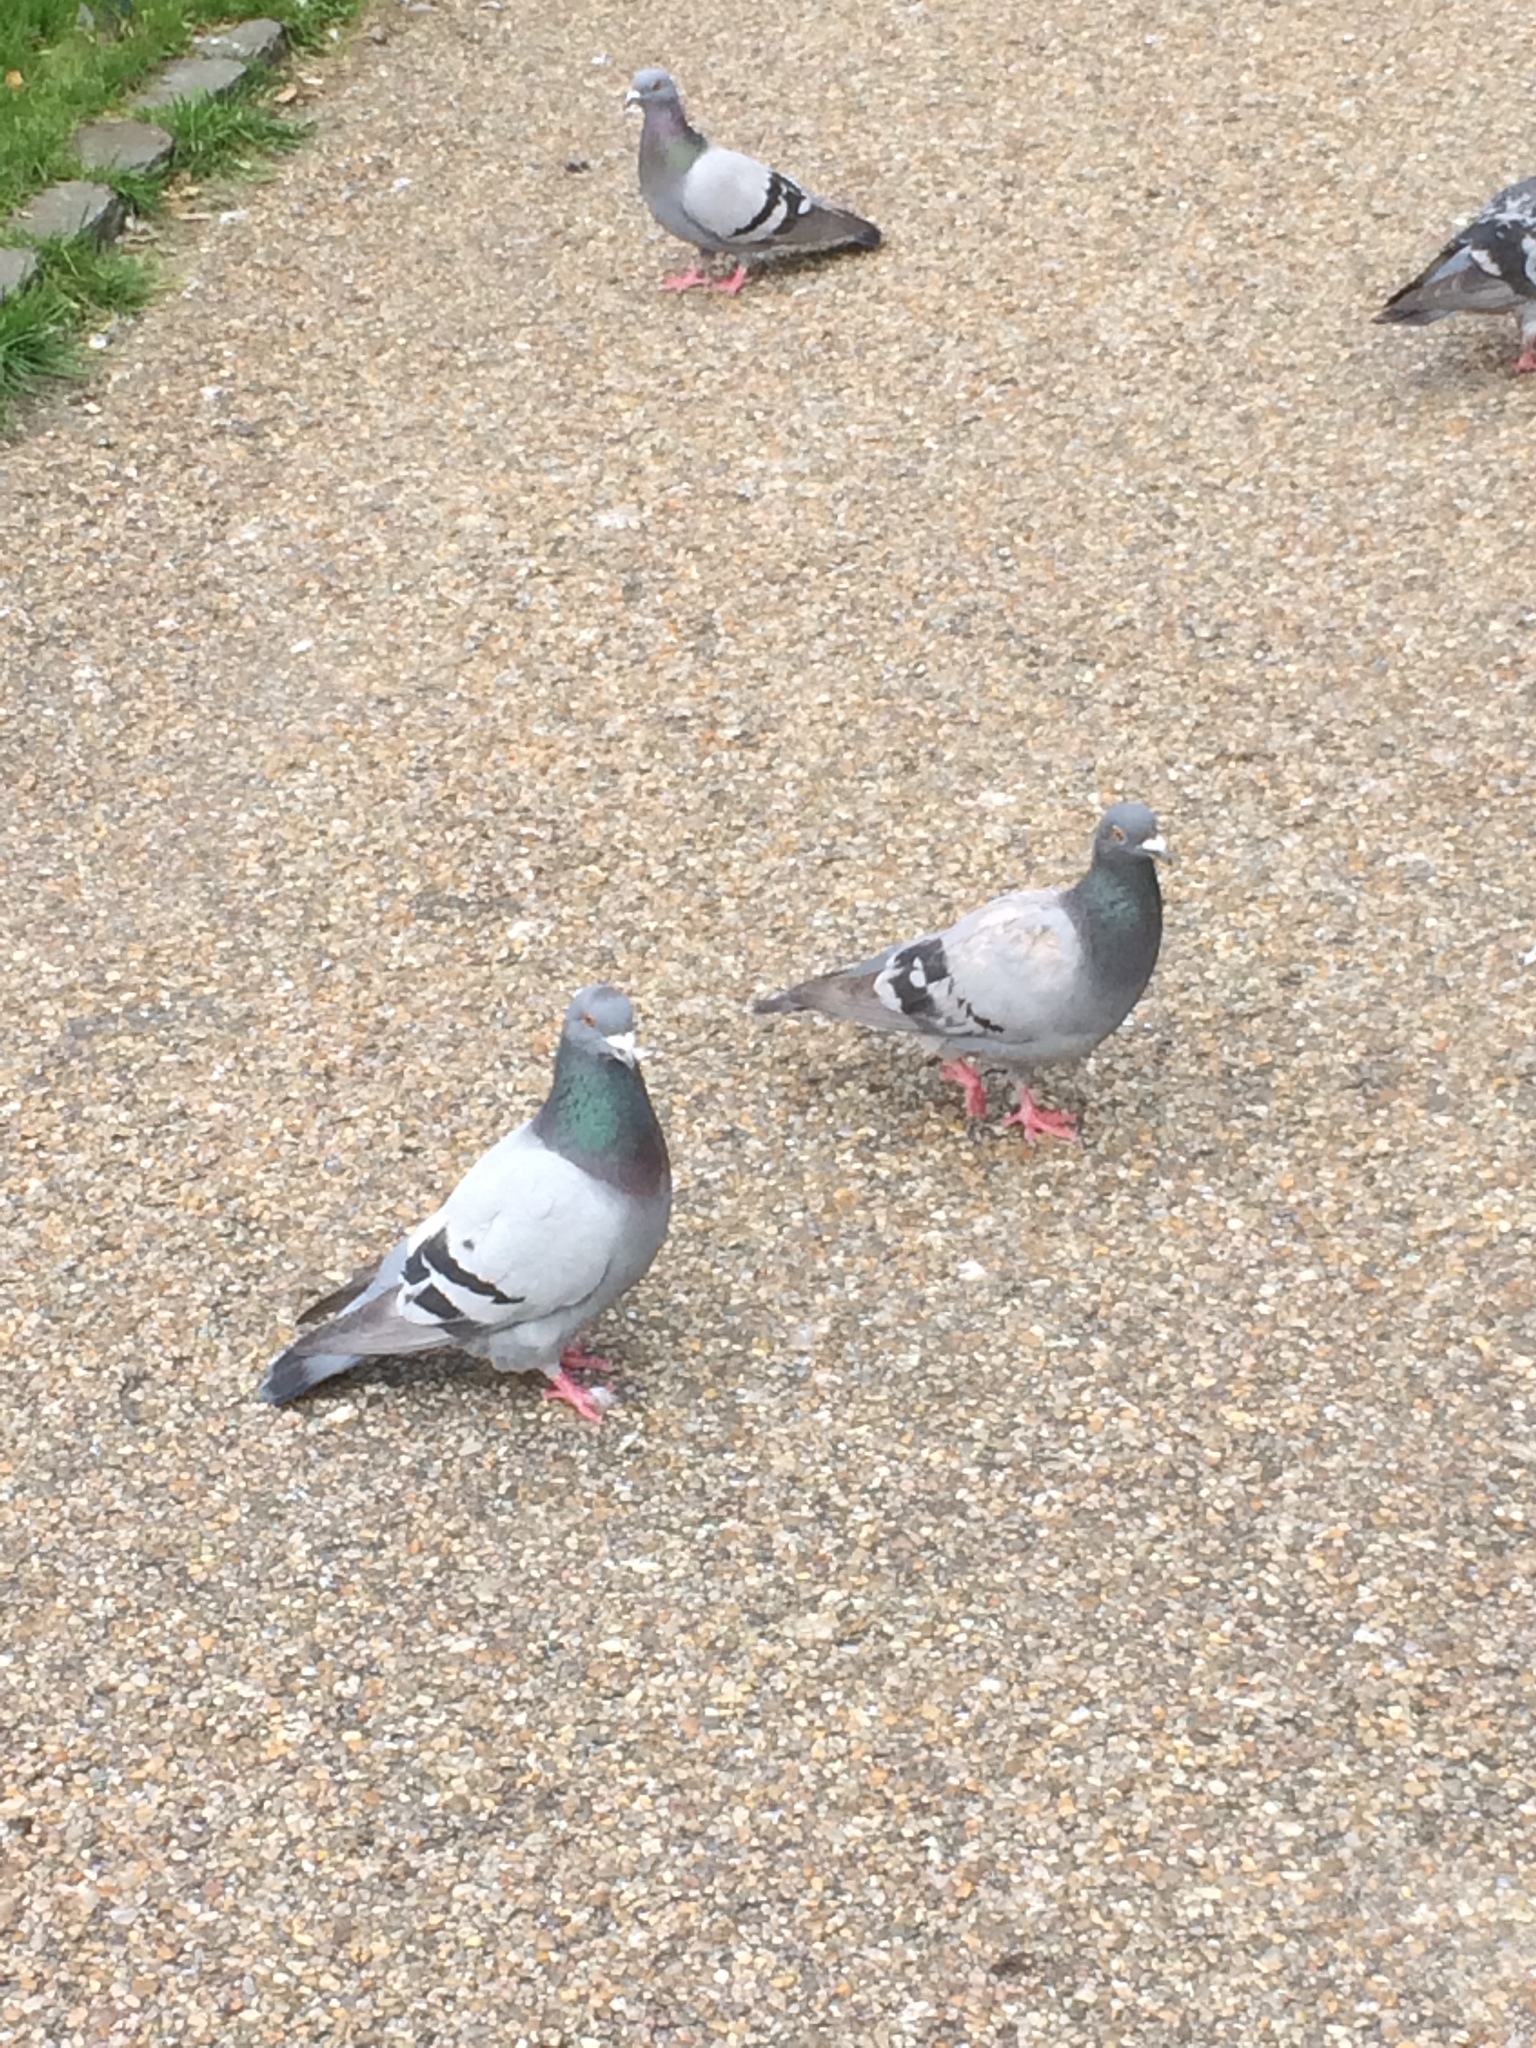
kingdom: Animalia
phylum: Chordata
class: Aves
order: Columbiformes
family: Columbidae
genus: Columba
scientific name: Columba livia
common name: Rock pigeon
